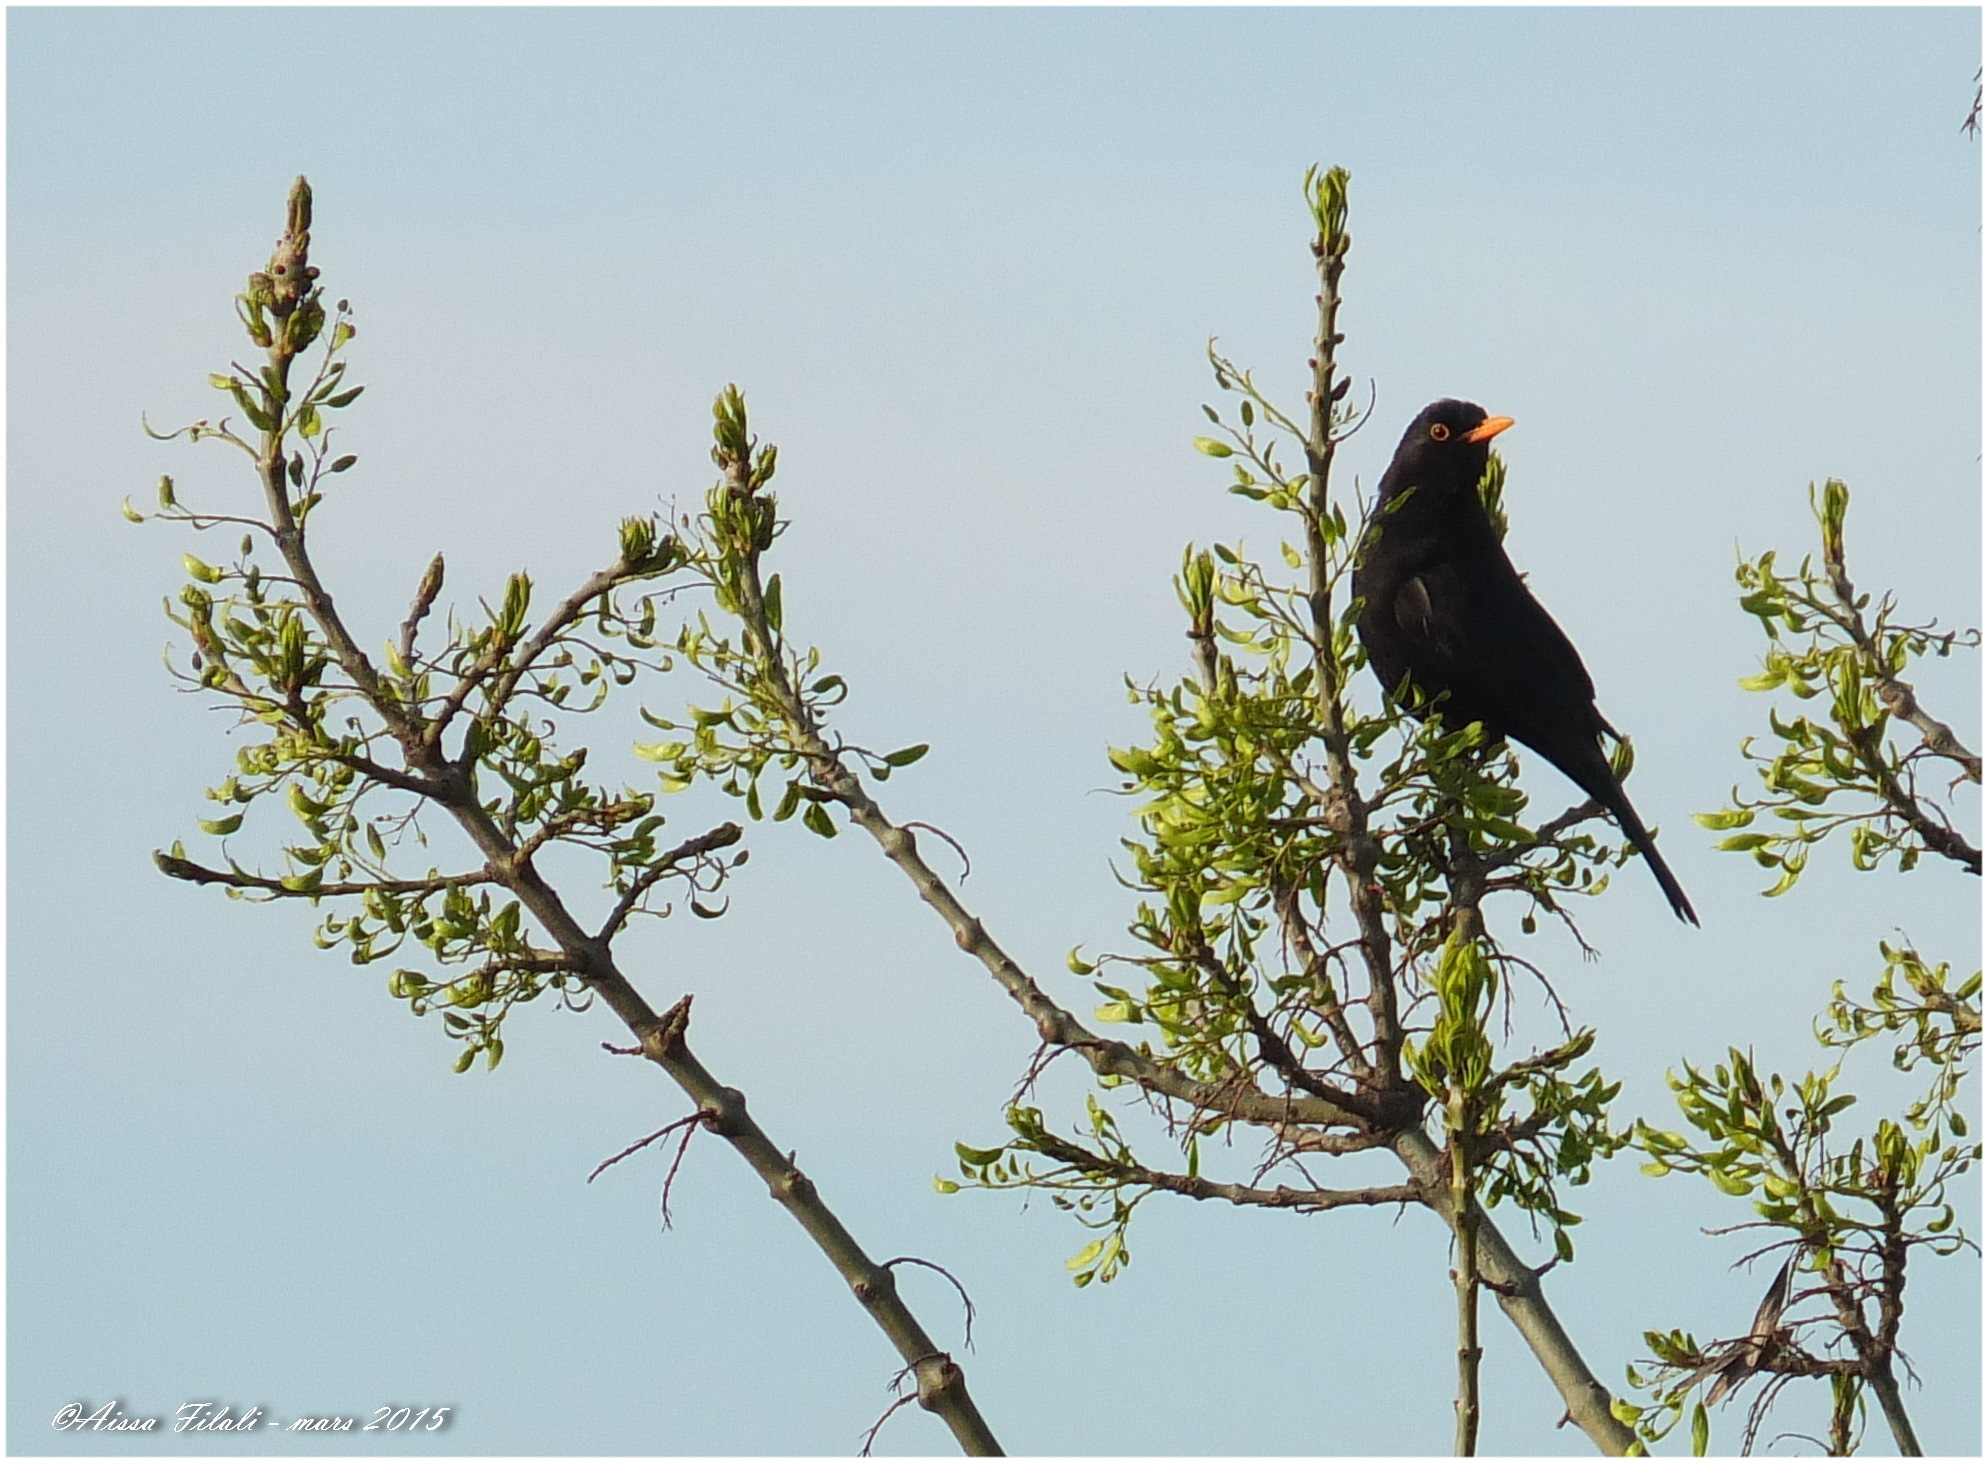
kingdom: Animalia
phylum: Chordata
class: Aves
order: Passeriformes
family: Turdidae
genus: Turdus
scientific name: Turdus merula
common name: Common blackbird
